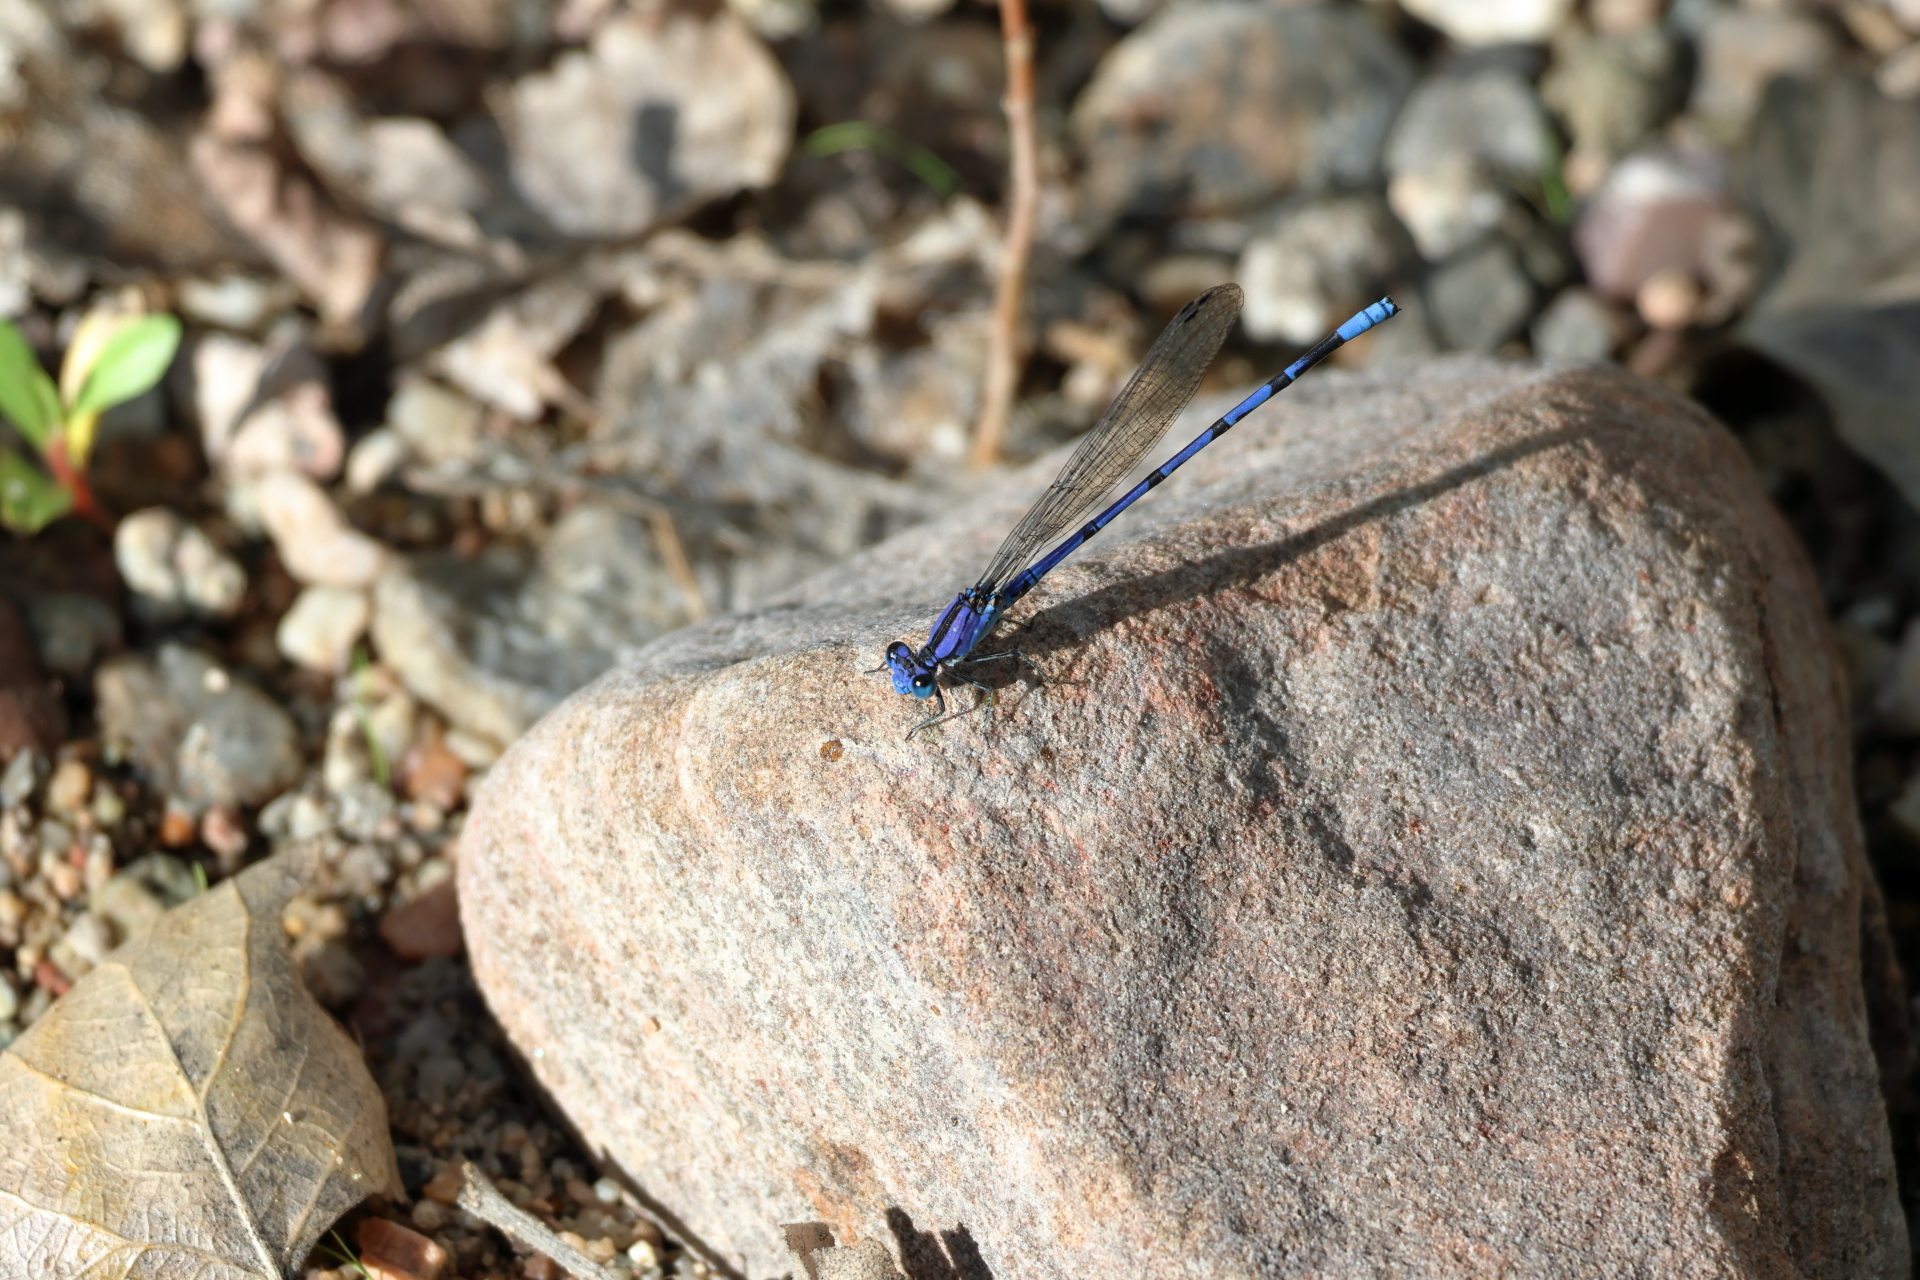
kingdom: Animalia
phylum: Arthropoda
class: Insecta
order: Odonata
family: Coenagrionidae
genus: Argia
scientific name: Argia extranea
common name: Spine-tipped dancer
